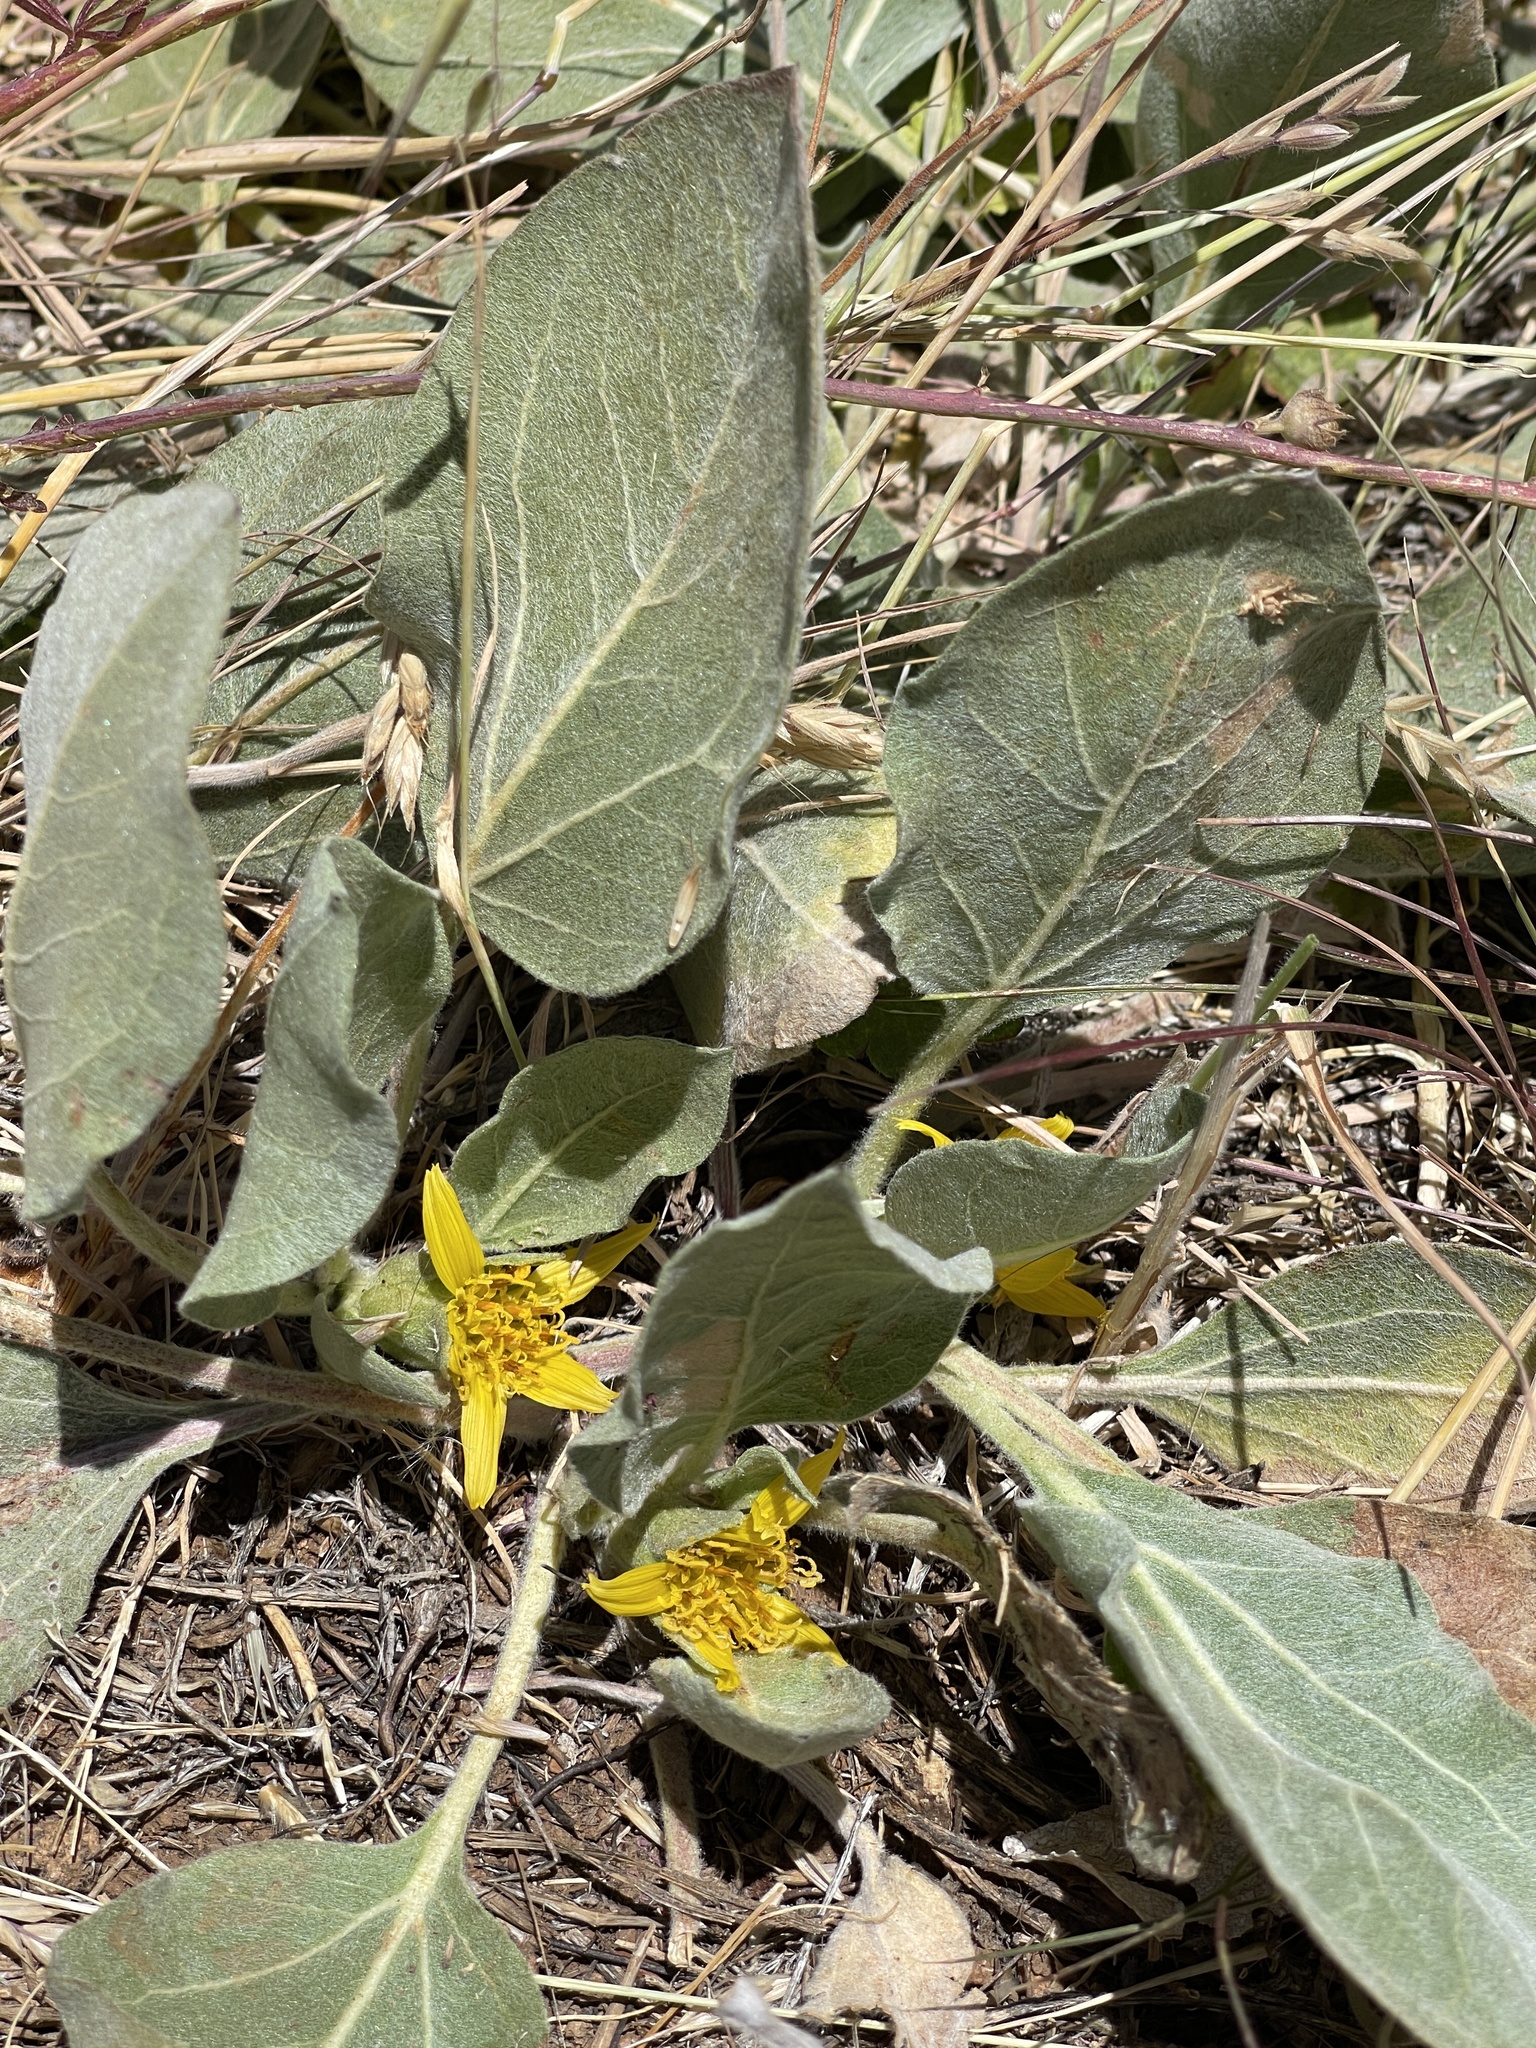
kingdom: Plantae
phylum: Tracheophyta
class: Magnoliopsida
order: Asterales
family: Asteraceae
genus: Agnorhiza
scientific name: Agnorhiza ovata
